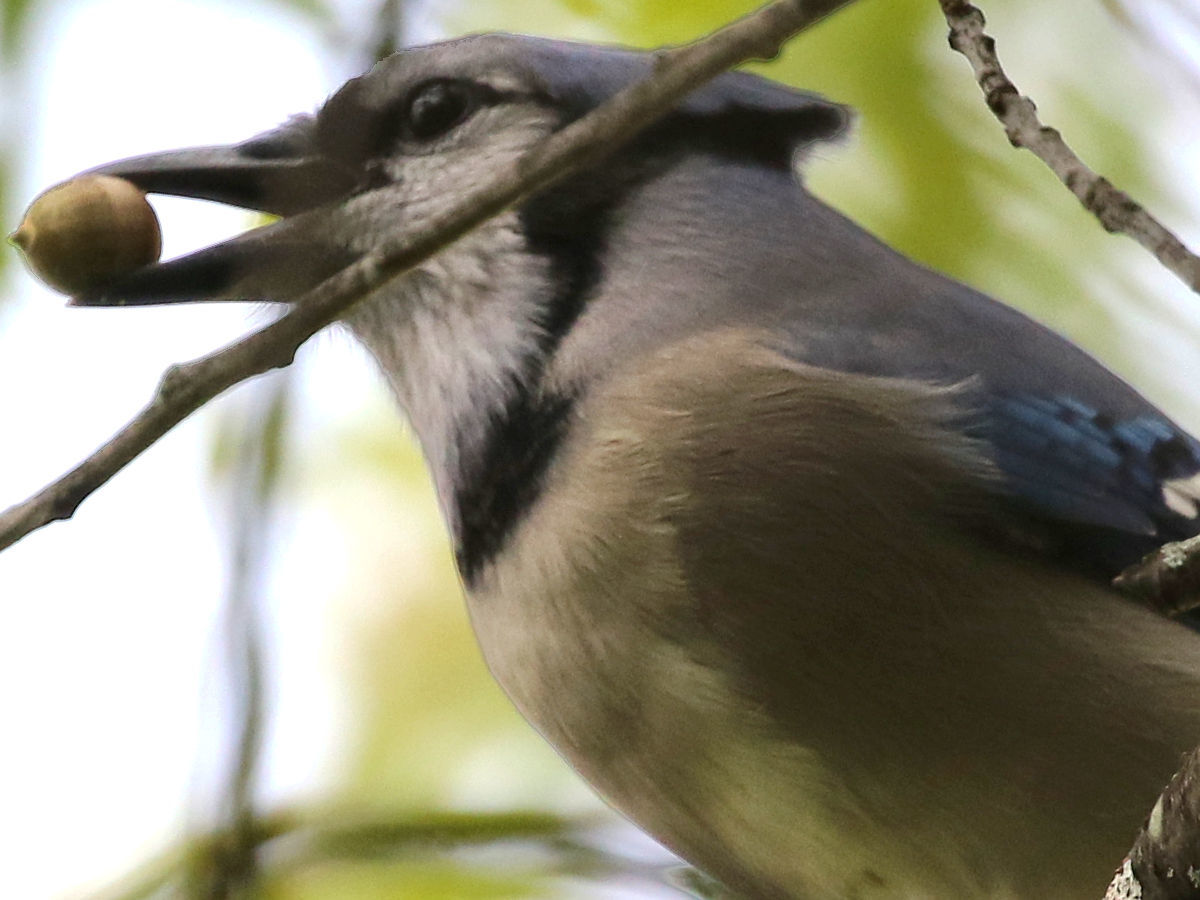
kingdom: Animalia
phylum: Chordata
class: Aves
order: Passeriformes
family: Corvidae
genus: Cyanocitta
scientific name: Cyanocitta cristata
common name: Blue jay
